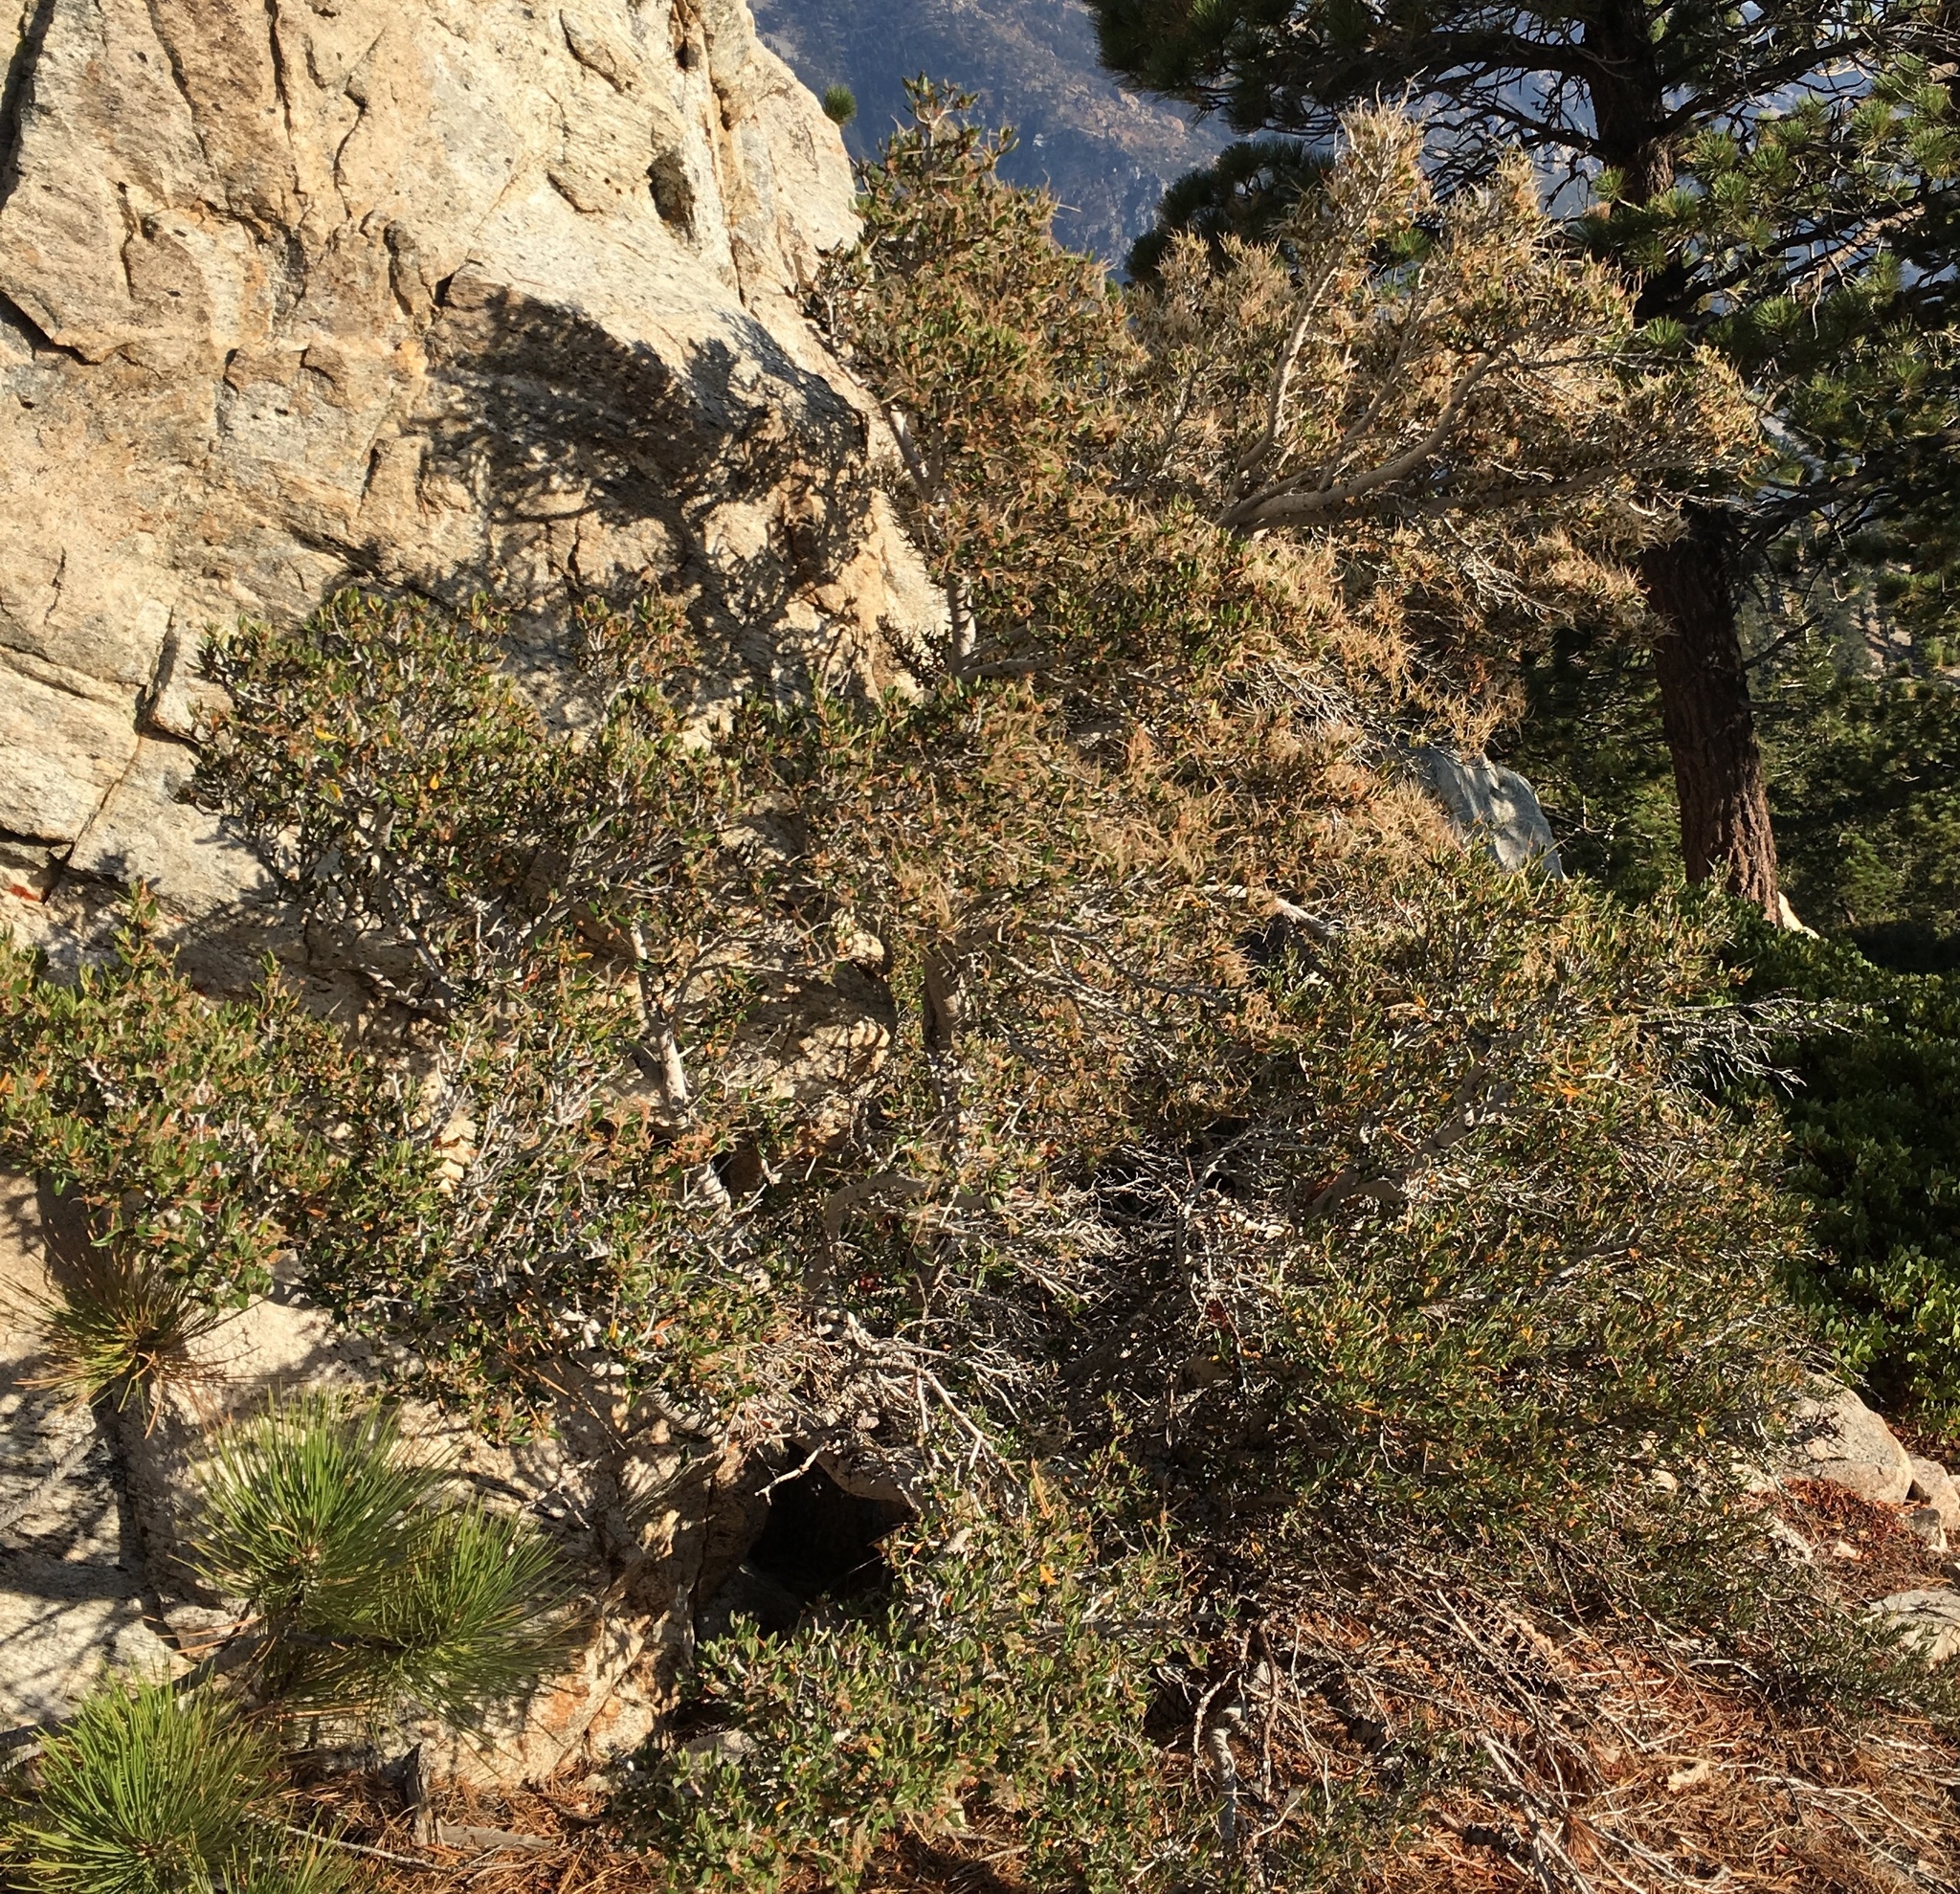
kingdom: Plantae
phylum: Tracheophyta
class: Magnoliopsida
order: Rosales
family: Rosaceae
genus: Cercocarpus
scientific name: Cercocarpus
